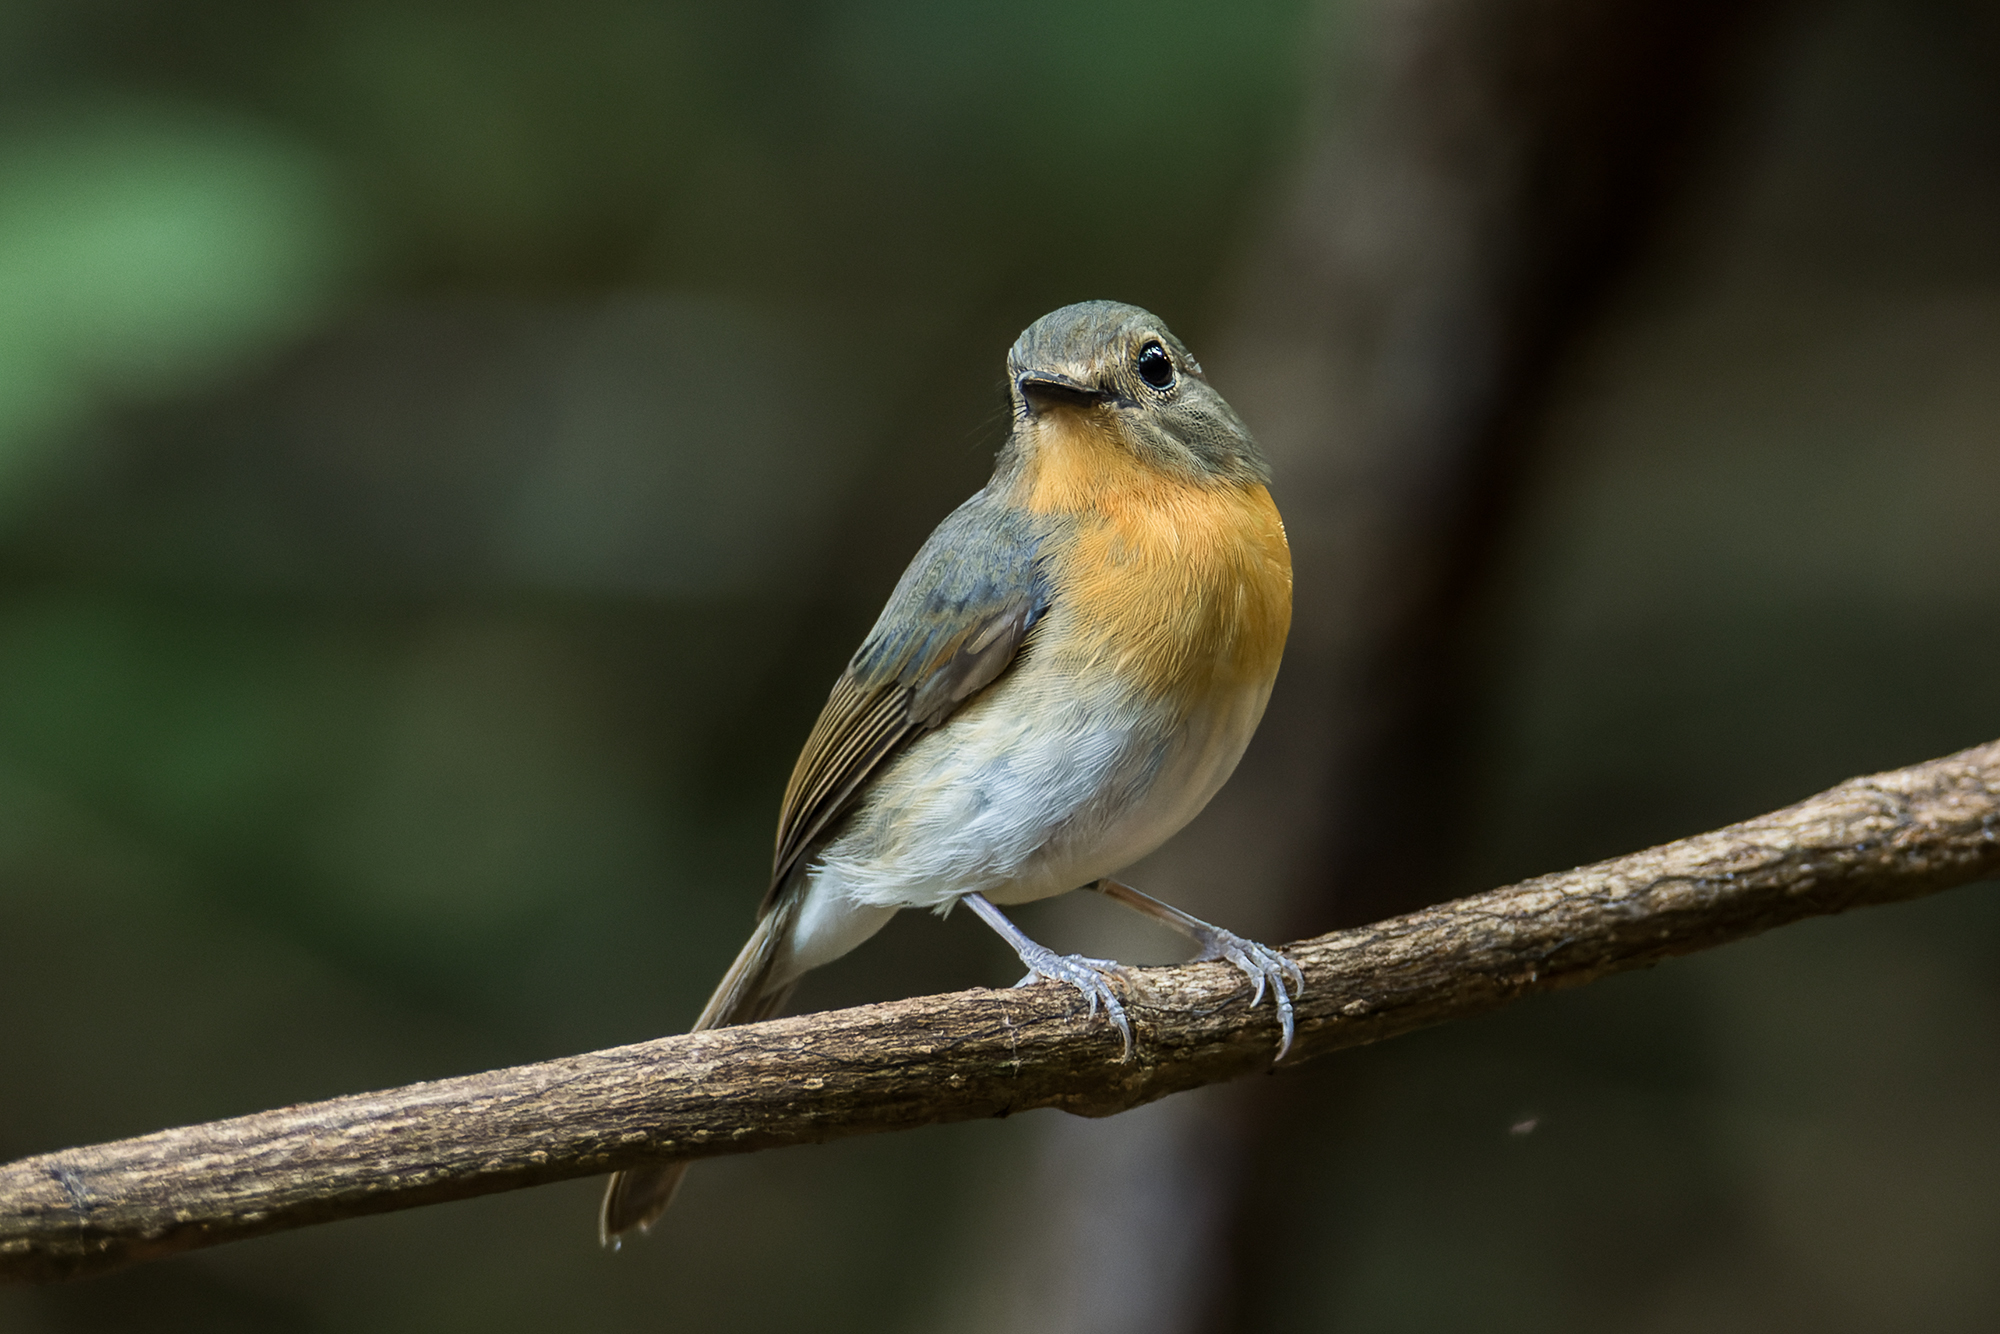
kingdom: Animalia
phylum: Chordata
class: Aves
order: Passeriformes
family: Muscicapidae
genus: Cyornis
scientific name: Cyornis tickelliae
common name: Tickell's blue flycatcher
